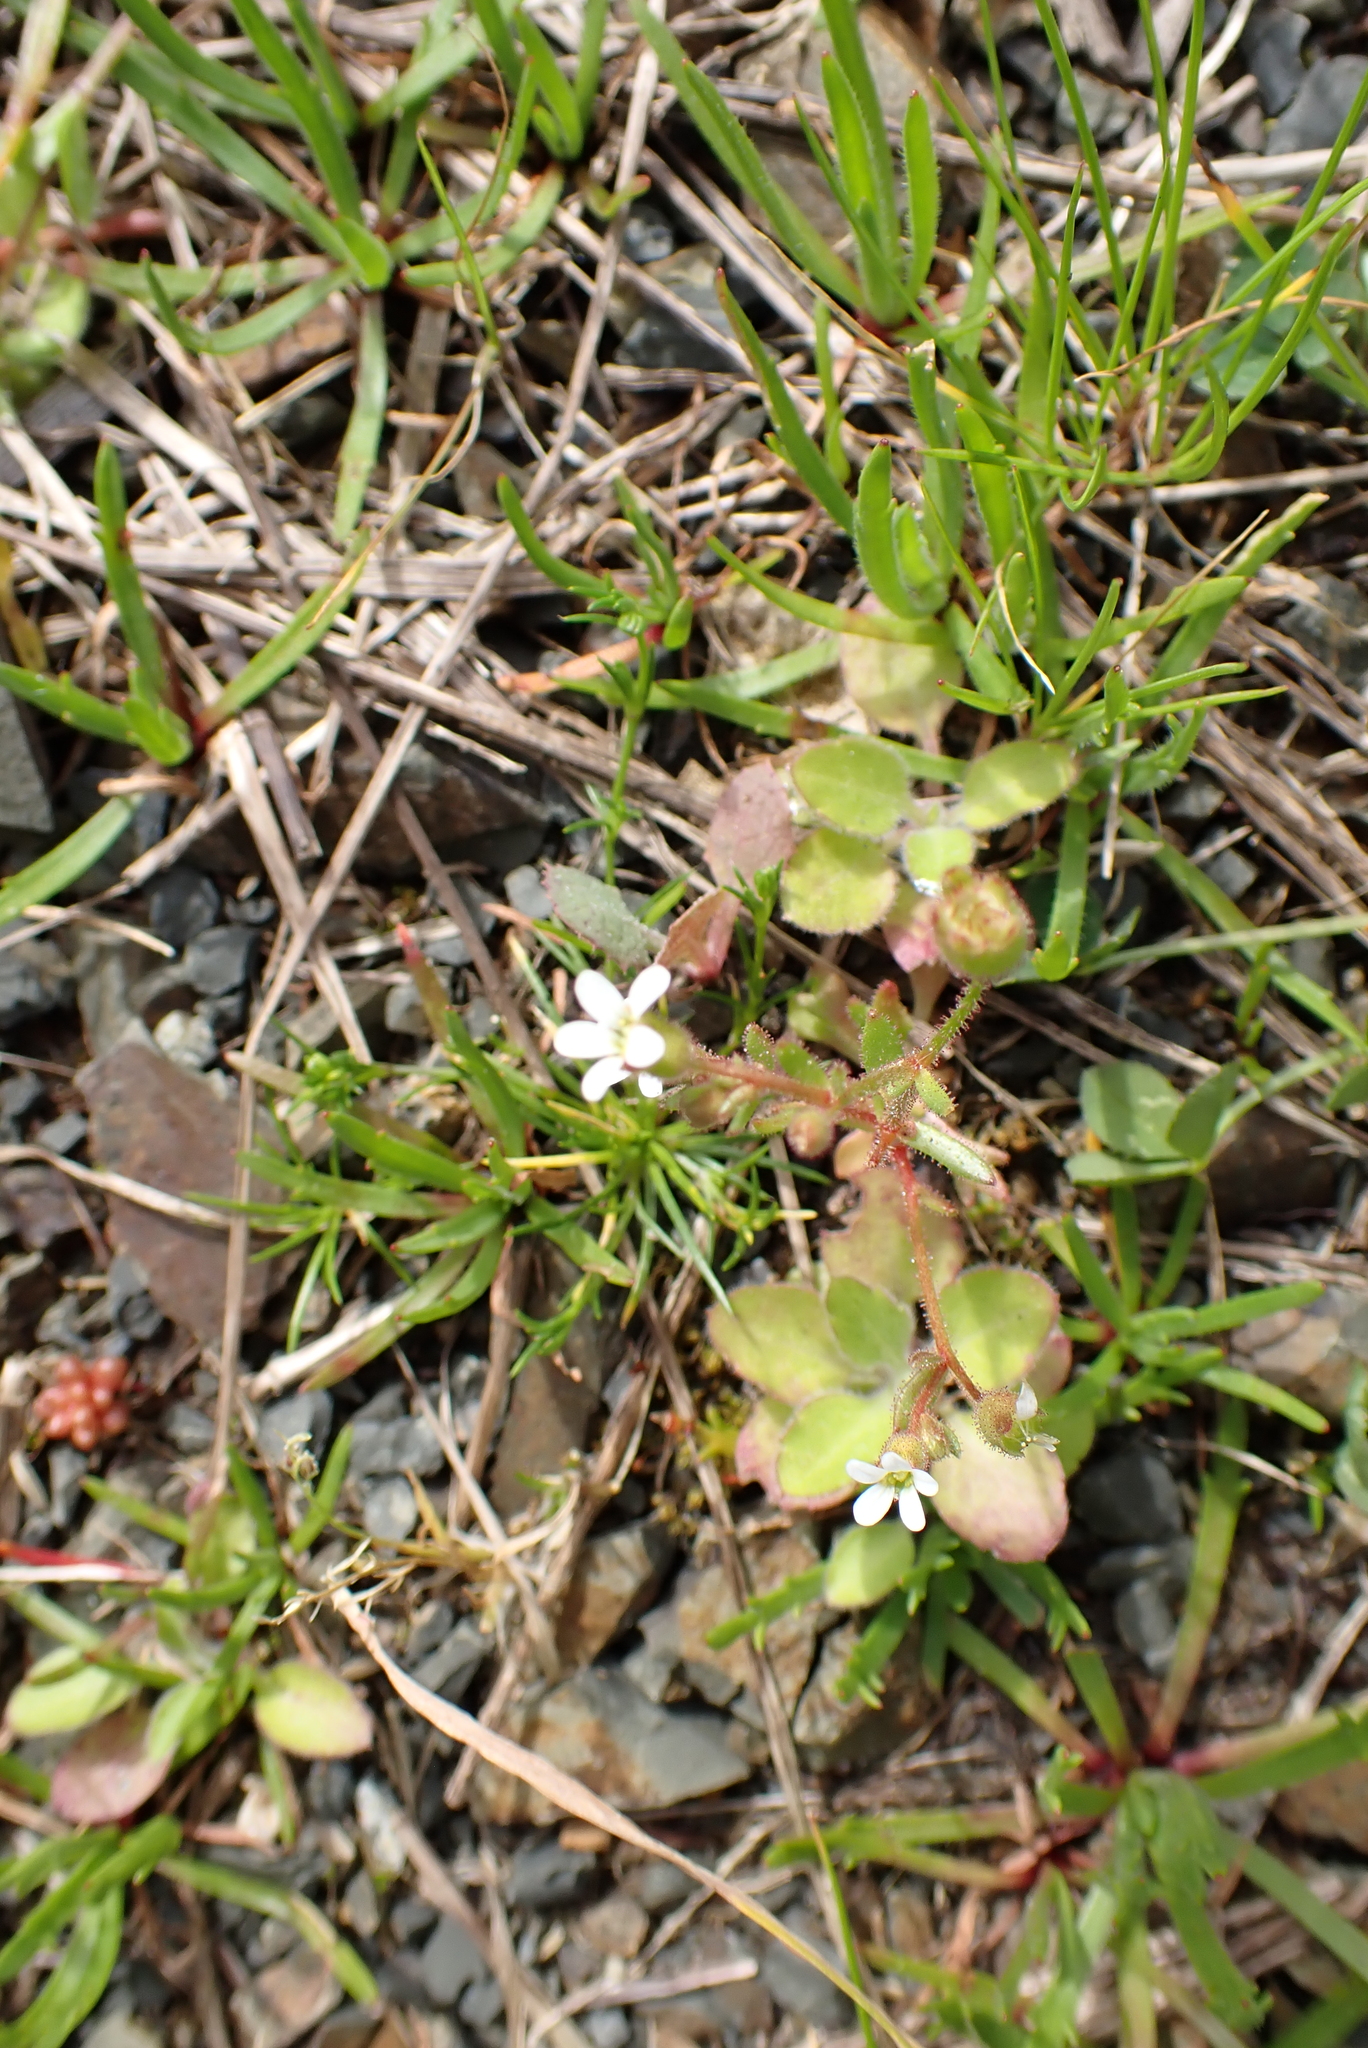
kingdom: Plantae
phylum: Tracheophyta
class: Magnoliopsida
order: Saxifragales
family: Saxifragaceae
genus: Saxifraga
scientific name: Saxifraga tridactylites
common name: Rue-leaved saxifrage
